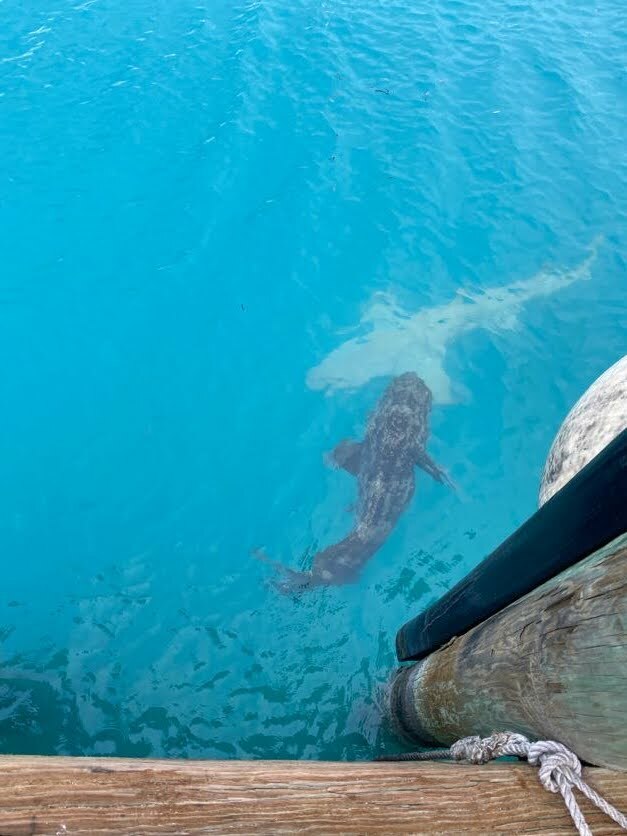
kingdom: Animalia
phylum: Chordata
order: Perciformes
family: Serranidae
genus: Epinephelus
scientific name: Epinephelus itajara
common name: Jewfish
